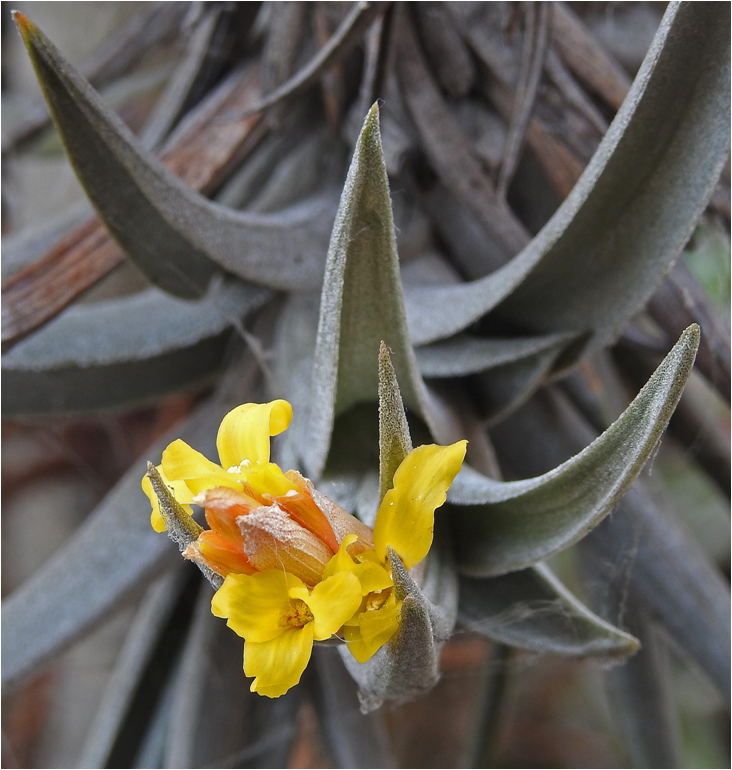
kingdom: Plantae
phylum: Tracheophyta
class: Liliopsida
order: Poales
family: Bromeliaceae
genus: Tillandsia
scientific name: Tillandsia ixioides
